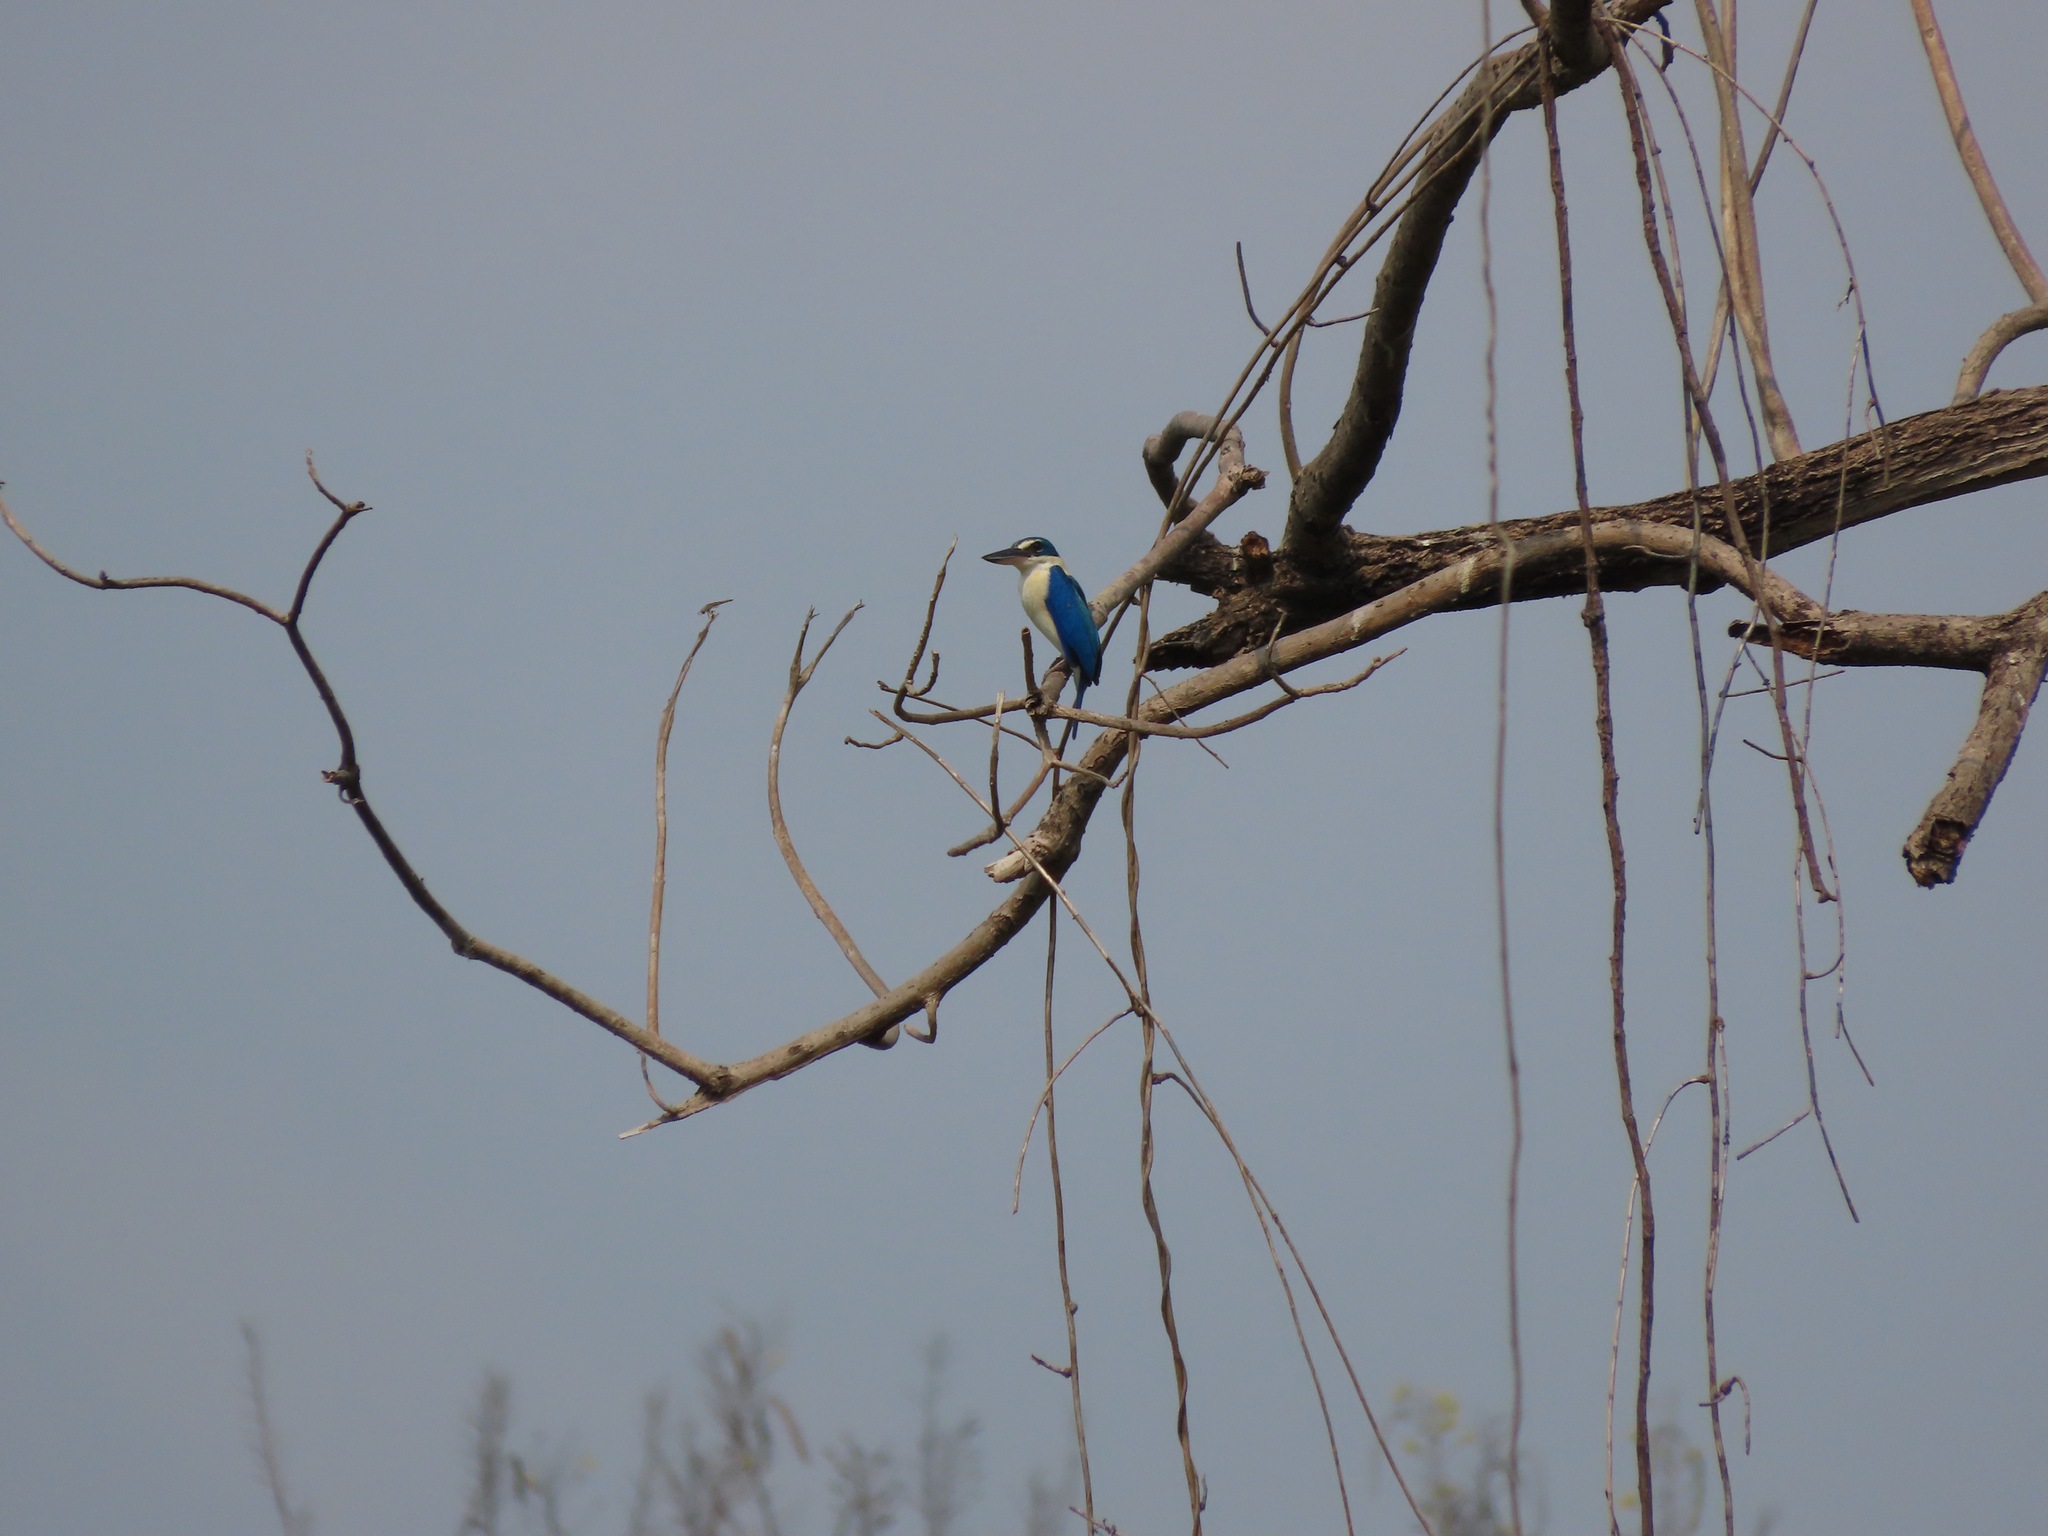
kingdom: Animalia
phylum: Chordata
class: Aves
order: Coraciiformes
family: Alcedinidae
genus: Todiramphus
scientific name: Todiramphus chloris
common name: Collared kingfisher
